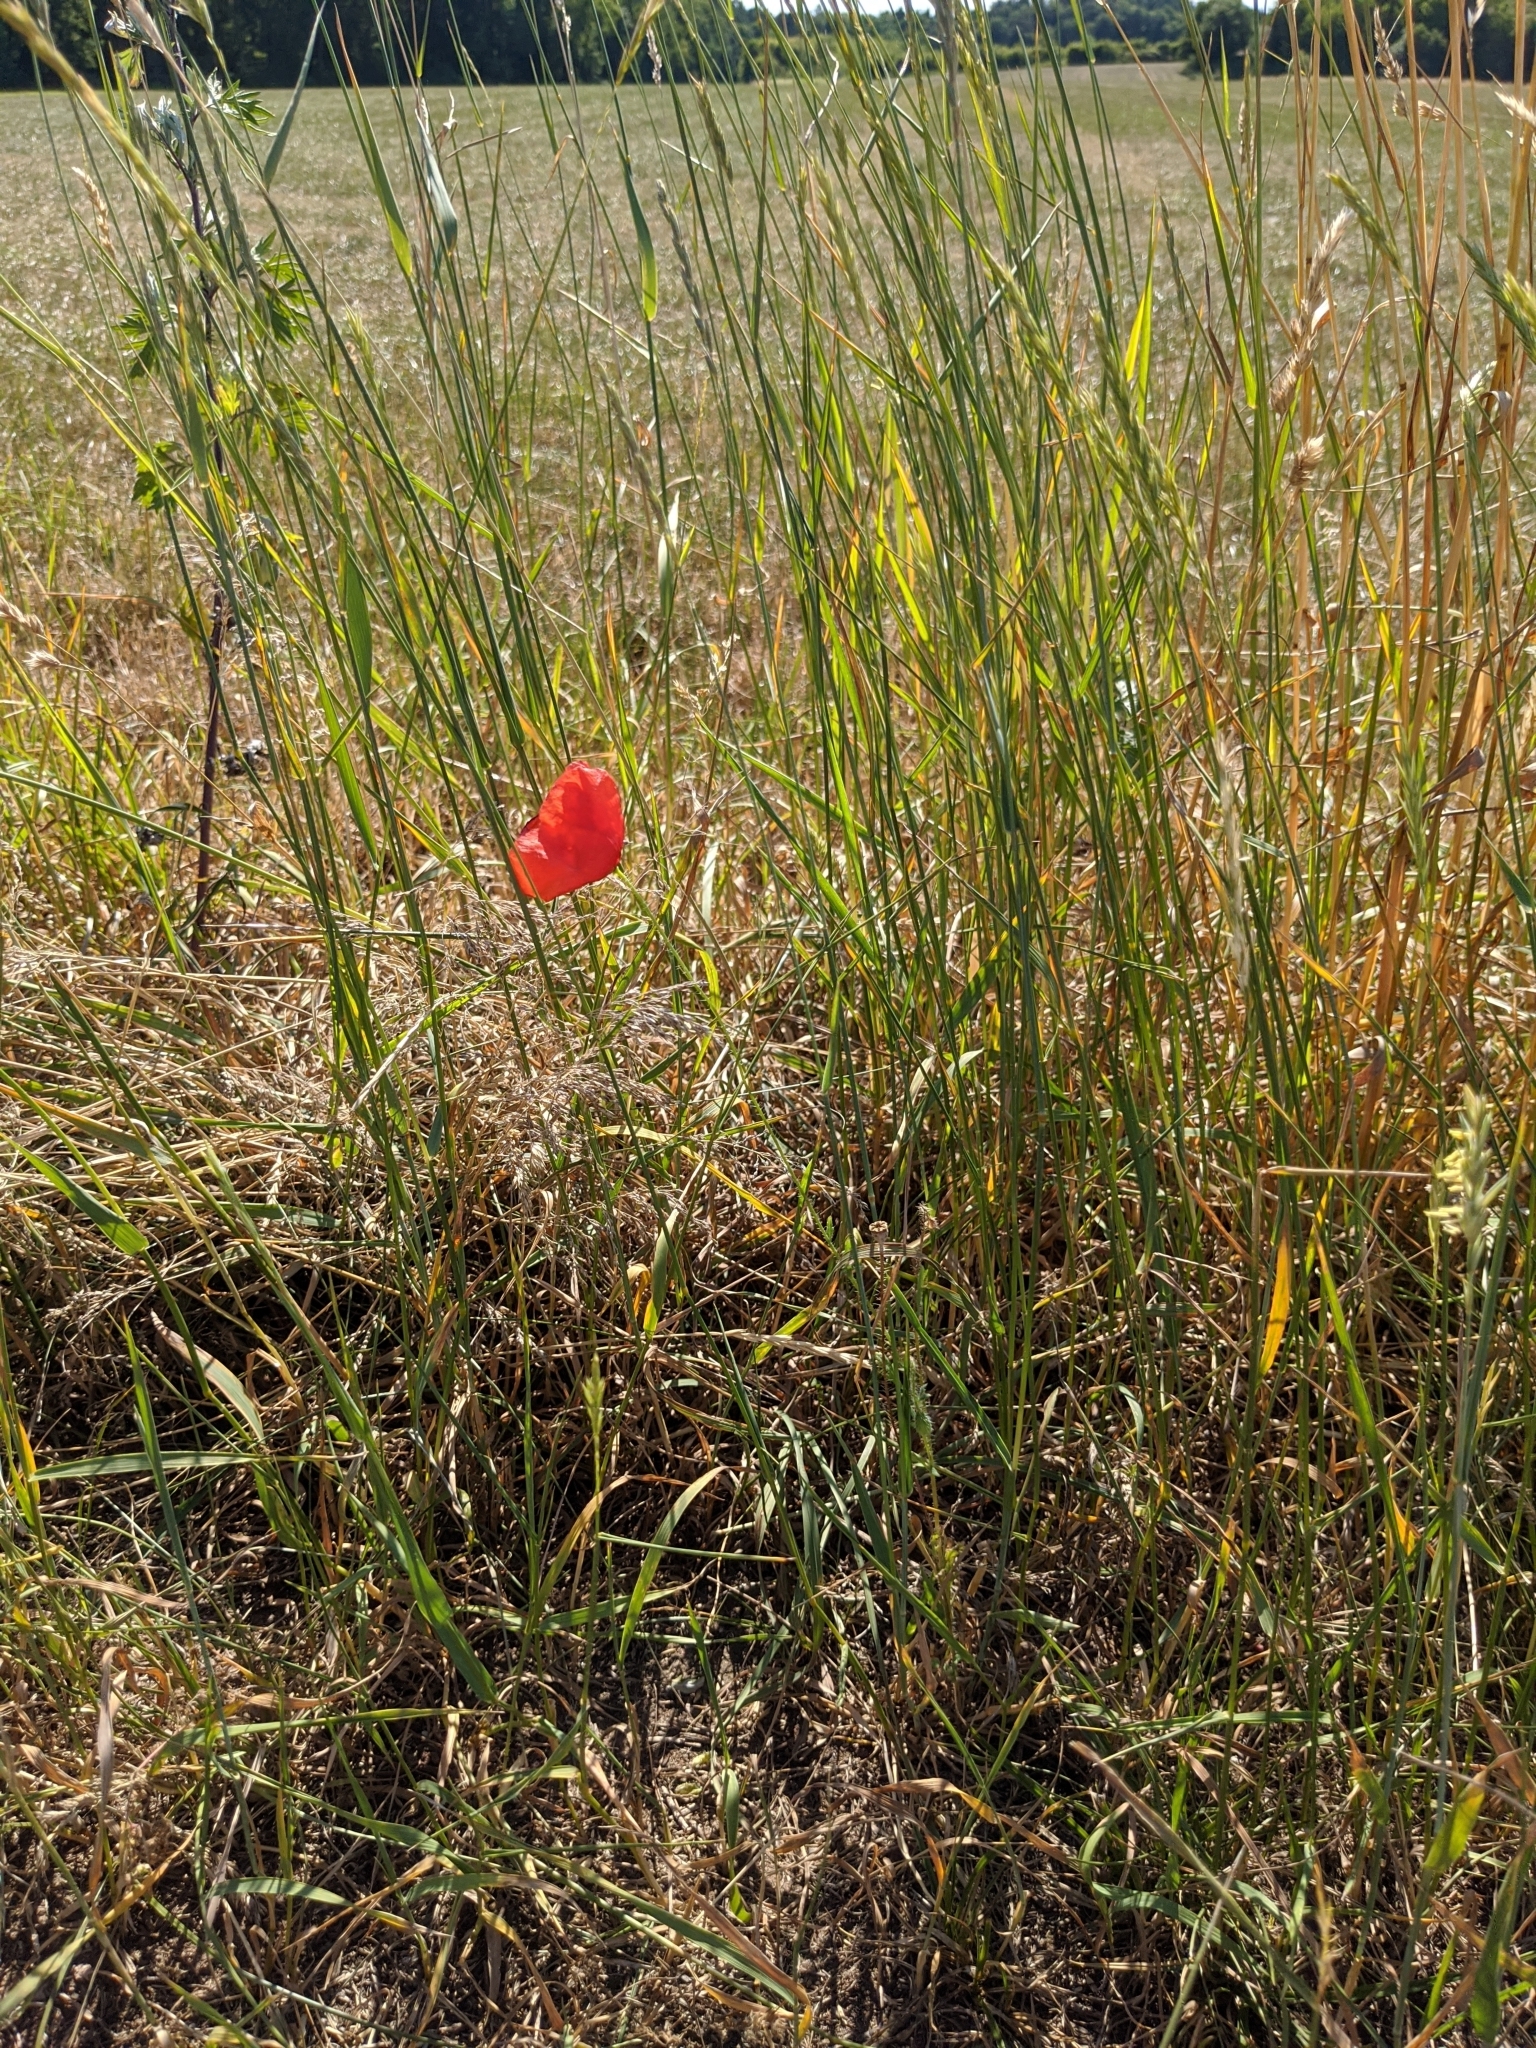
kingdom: Plantae
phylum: Tracheophyta
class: Magnoliopsida
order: Ranunculales
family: Papaveraceae
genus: Papaver
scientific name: Papaver rhoeas
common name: Corn poppy
